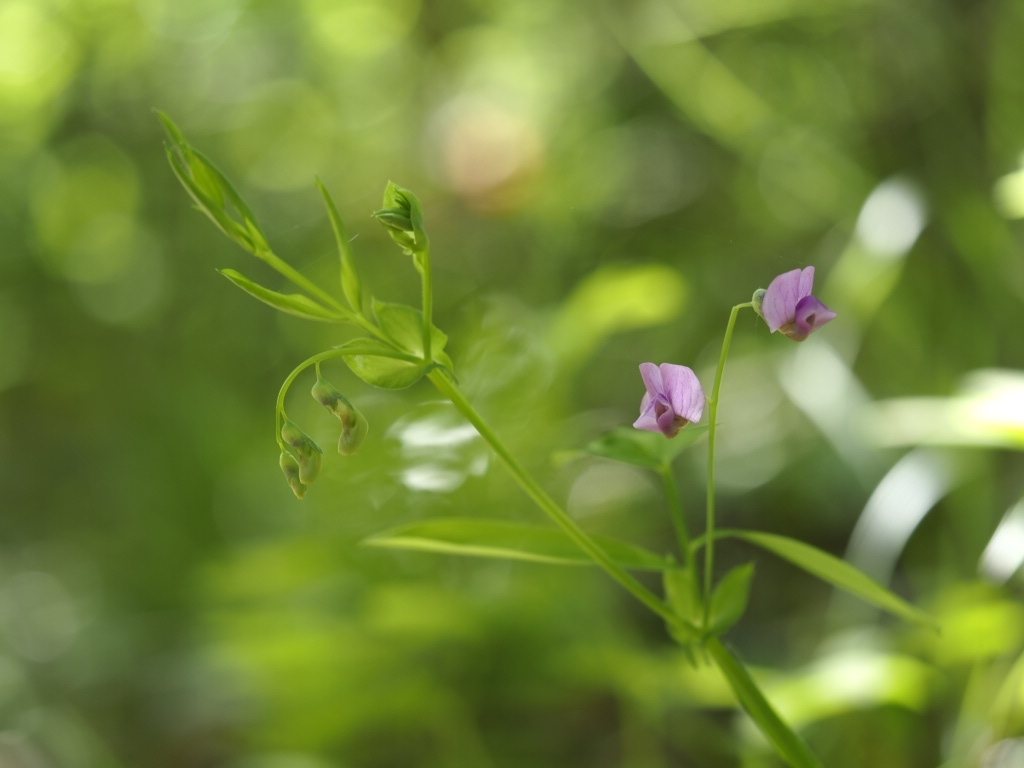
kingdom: Plantae
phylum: Tracheophyta
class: Magnoliopsida
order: Fabales
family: Fabaceae
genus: Lathyrus
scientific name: Lathyrus linifolius
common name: Bitter-vetch
